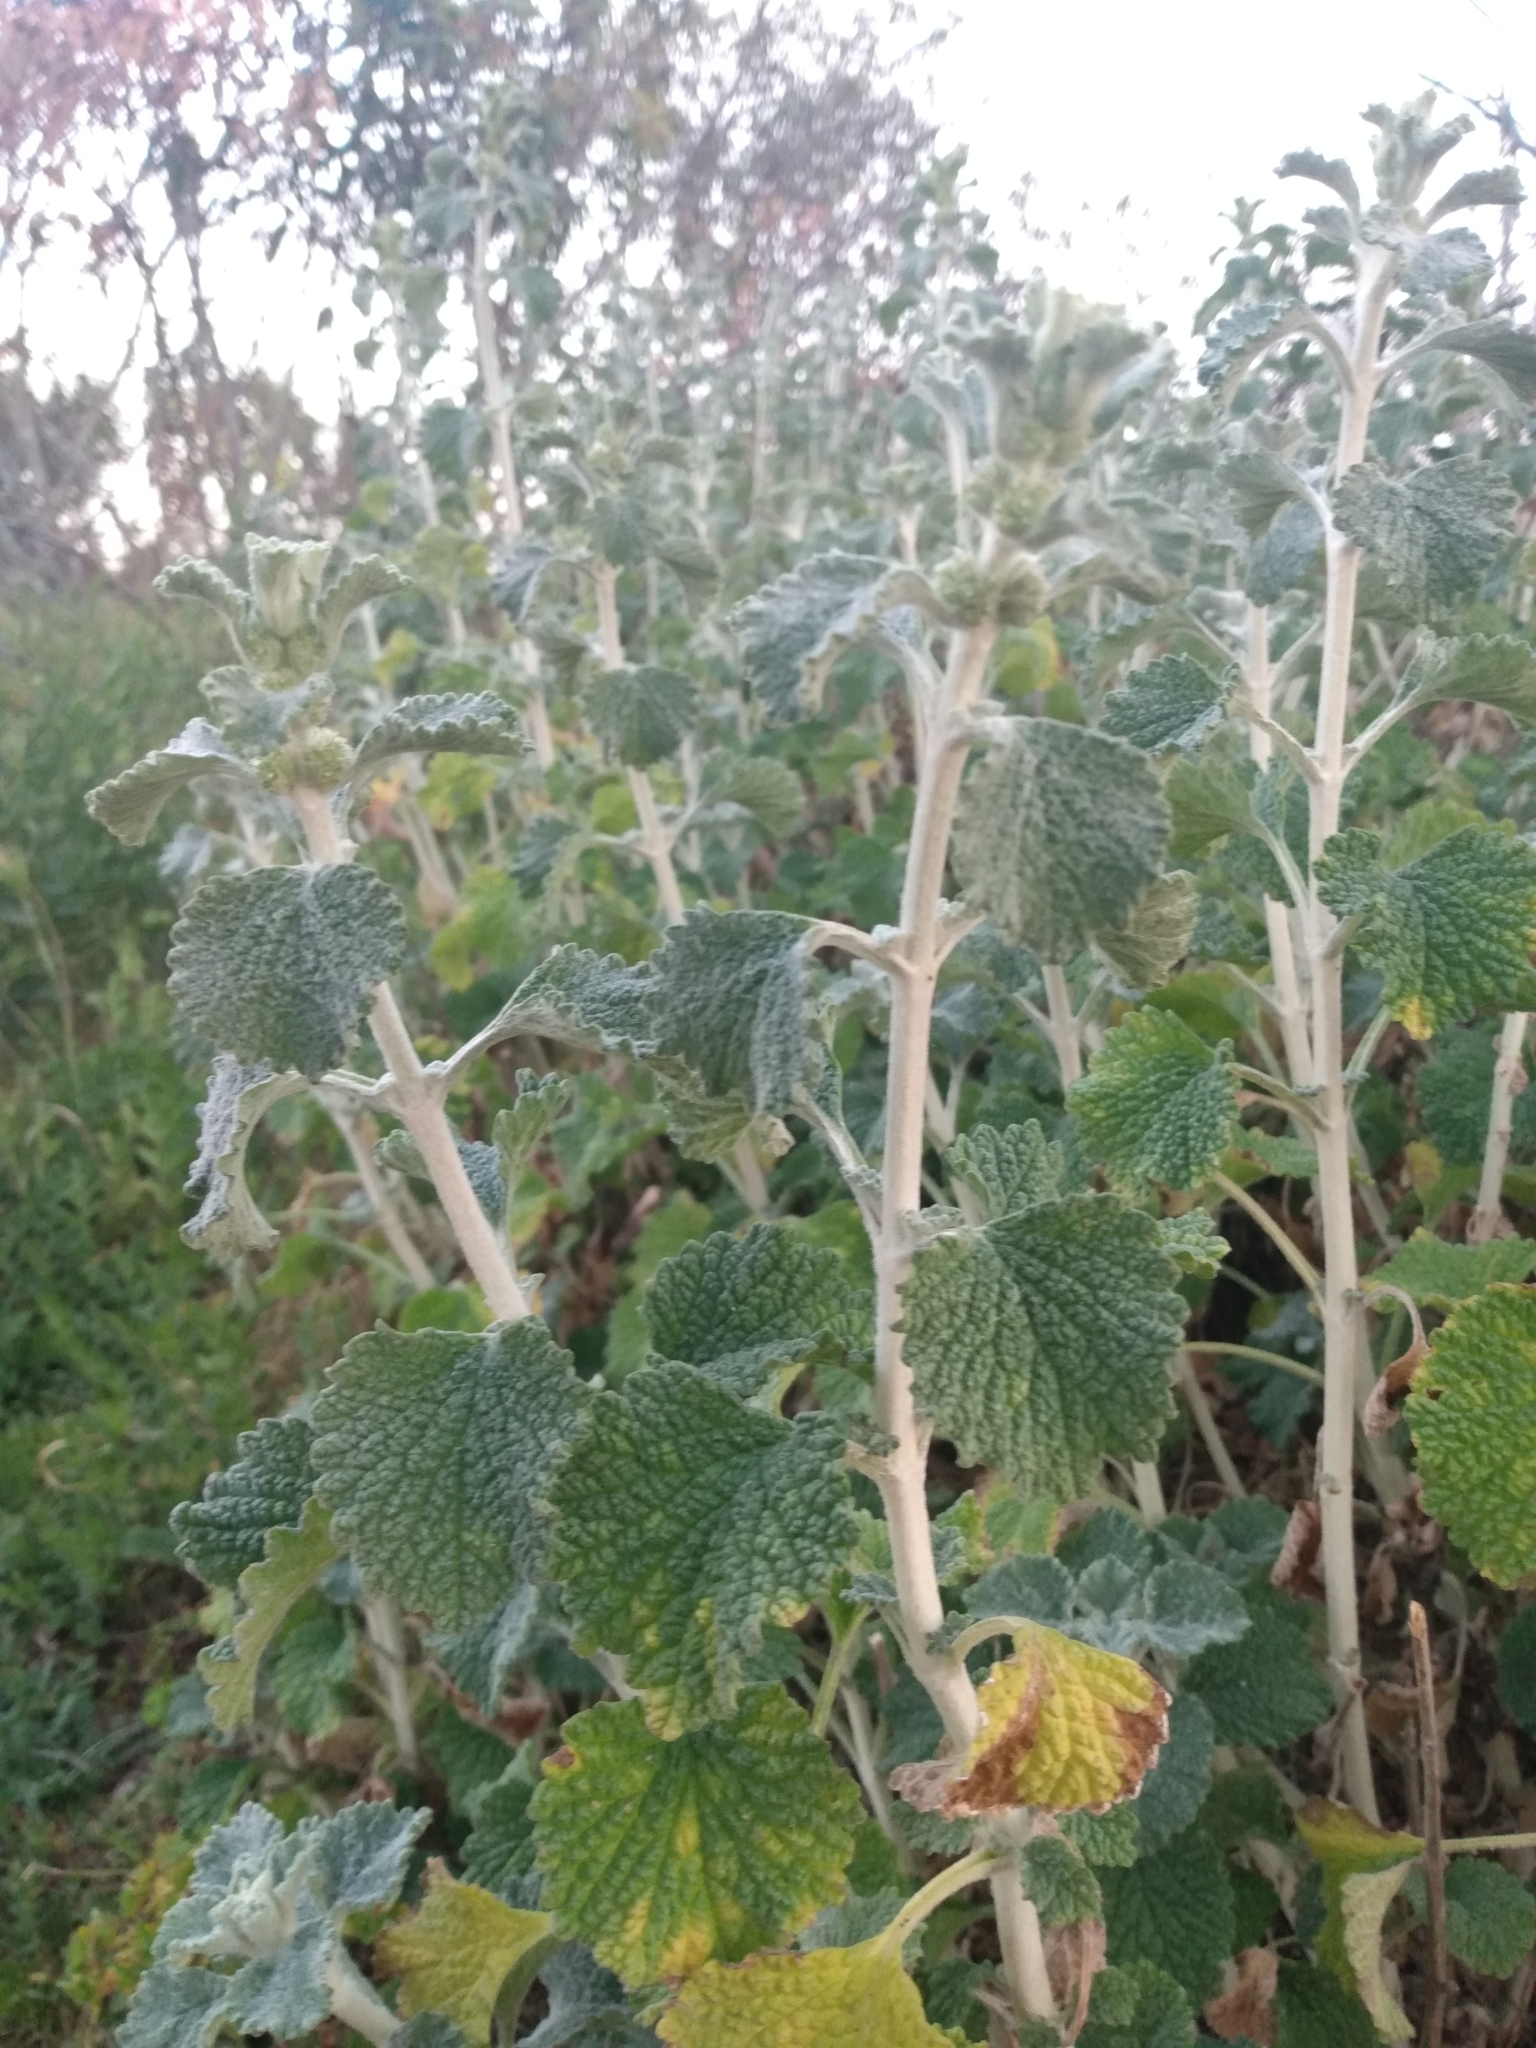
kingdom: Plantae
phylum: Tracheophyta
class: Magnoliopsida
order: Lamiales
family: Lamiaceae
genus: Marrubium
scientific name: Marrubium vulgare
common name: Horehound
